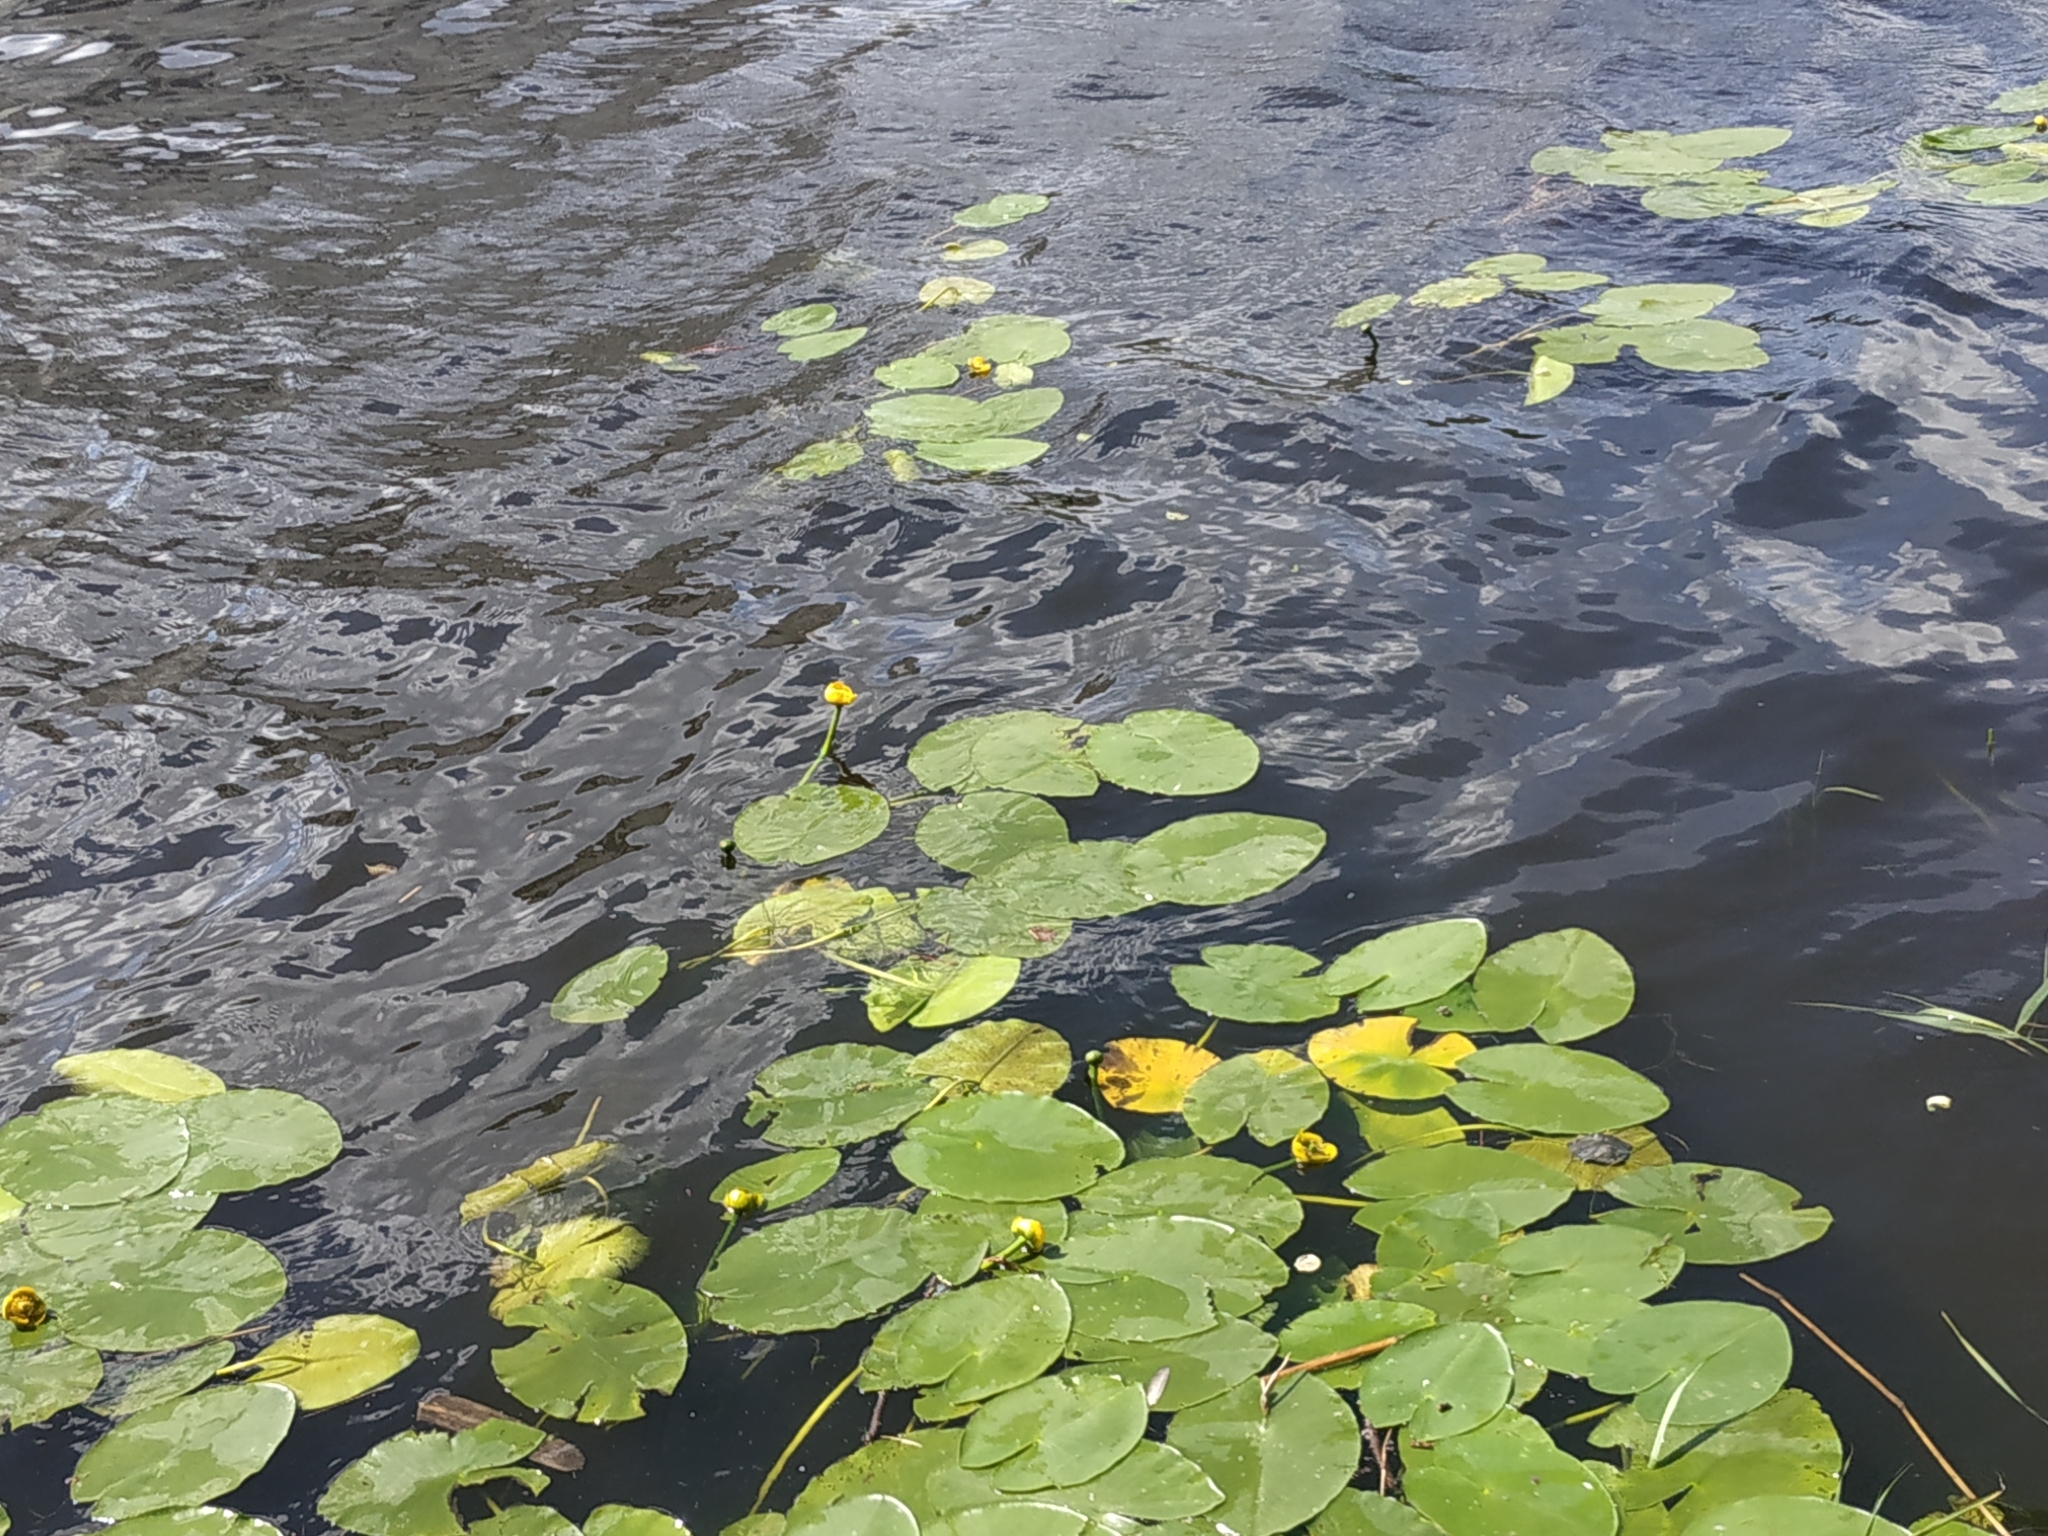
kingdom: Plantae
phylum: Tracheophyta
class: Magnoliopsida
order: Nymphaeales
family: Nymphaeaceae
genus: Nuphar
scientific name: Nuphar lutea
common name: Yellow water-lily
